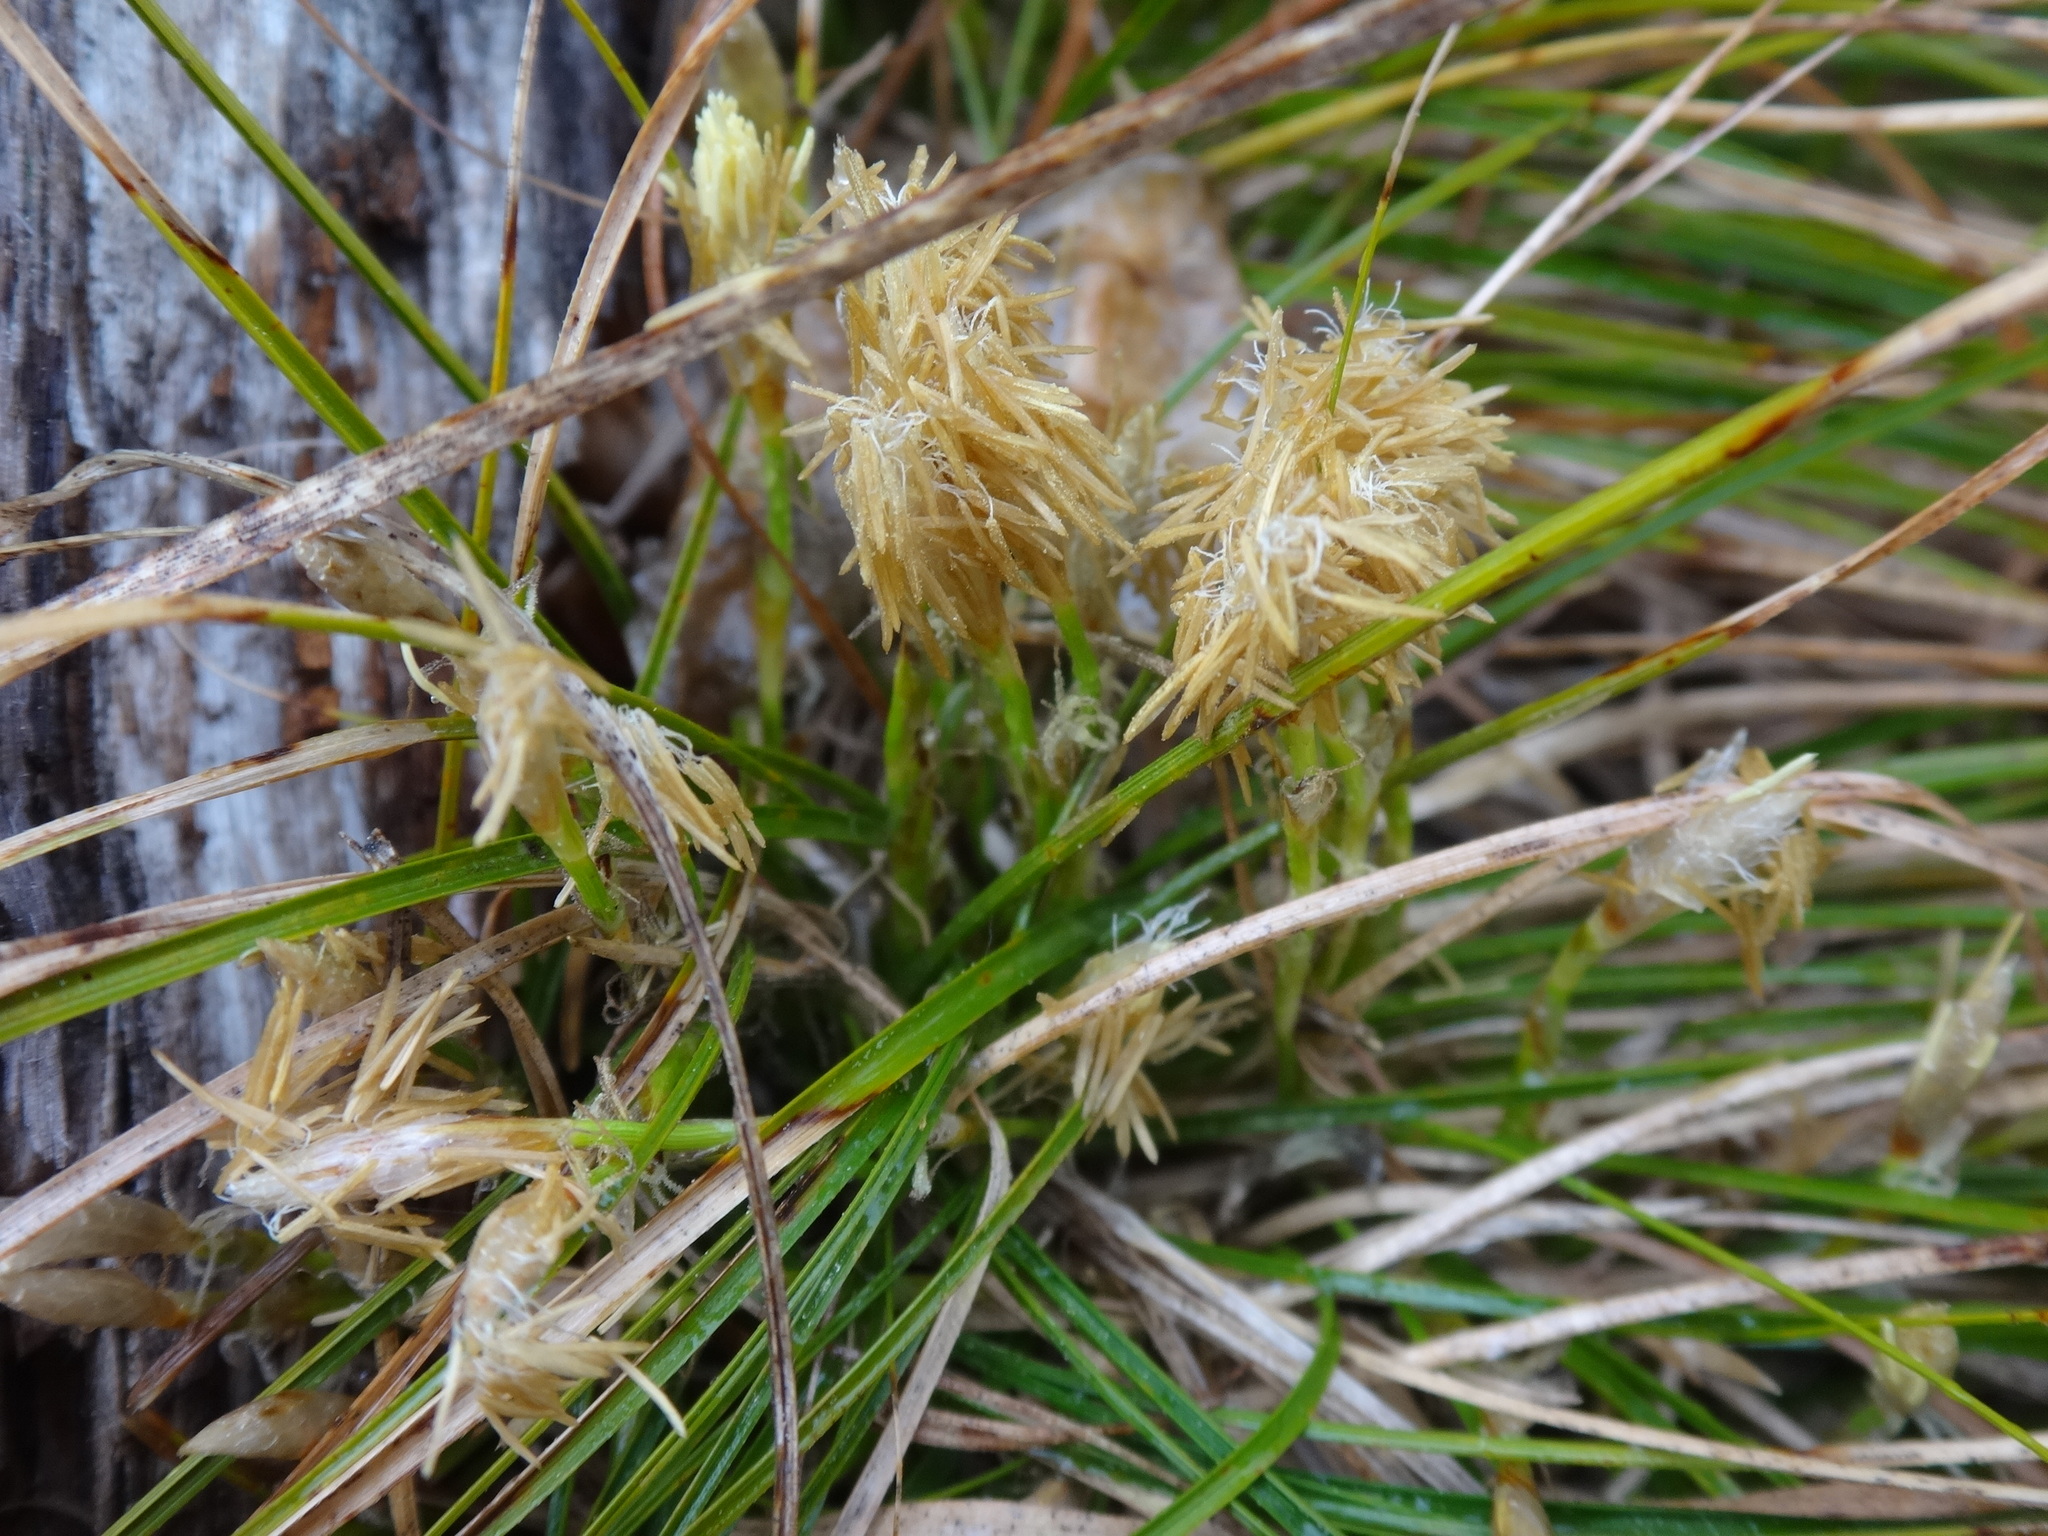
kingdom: Plantae
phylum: Tracheophyta
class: Liliopsida
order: Poales
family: Cyperaceae
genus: Carex
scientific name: Carex humilis
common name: Dwarf sedge
